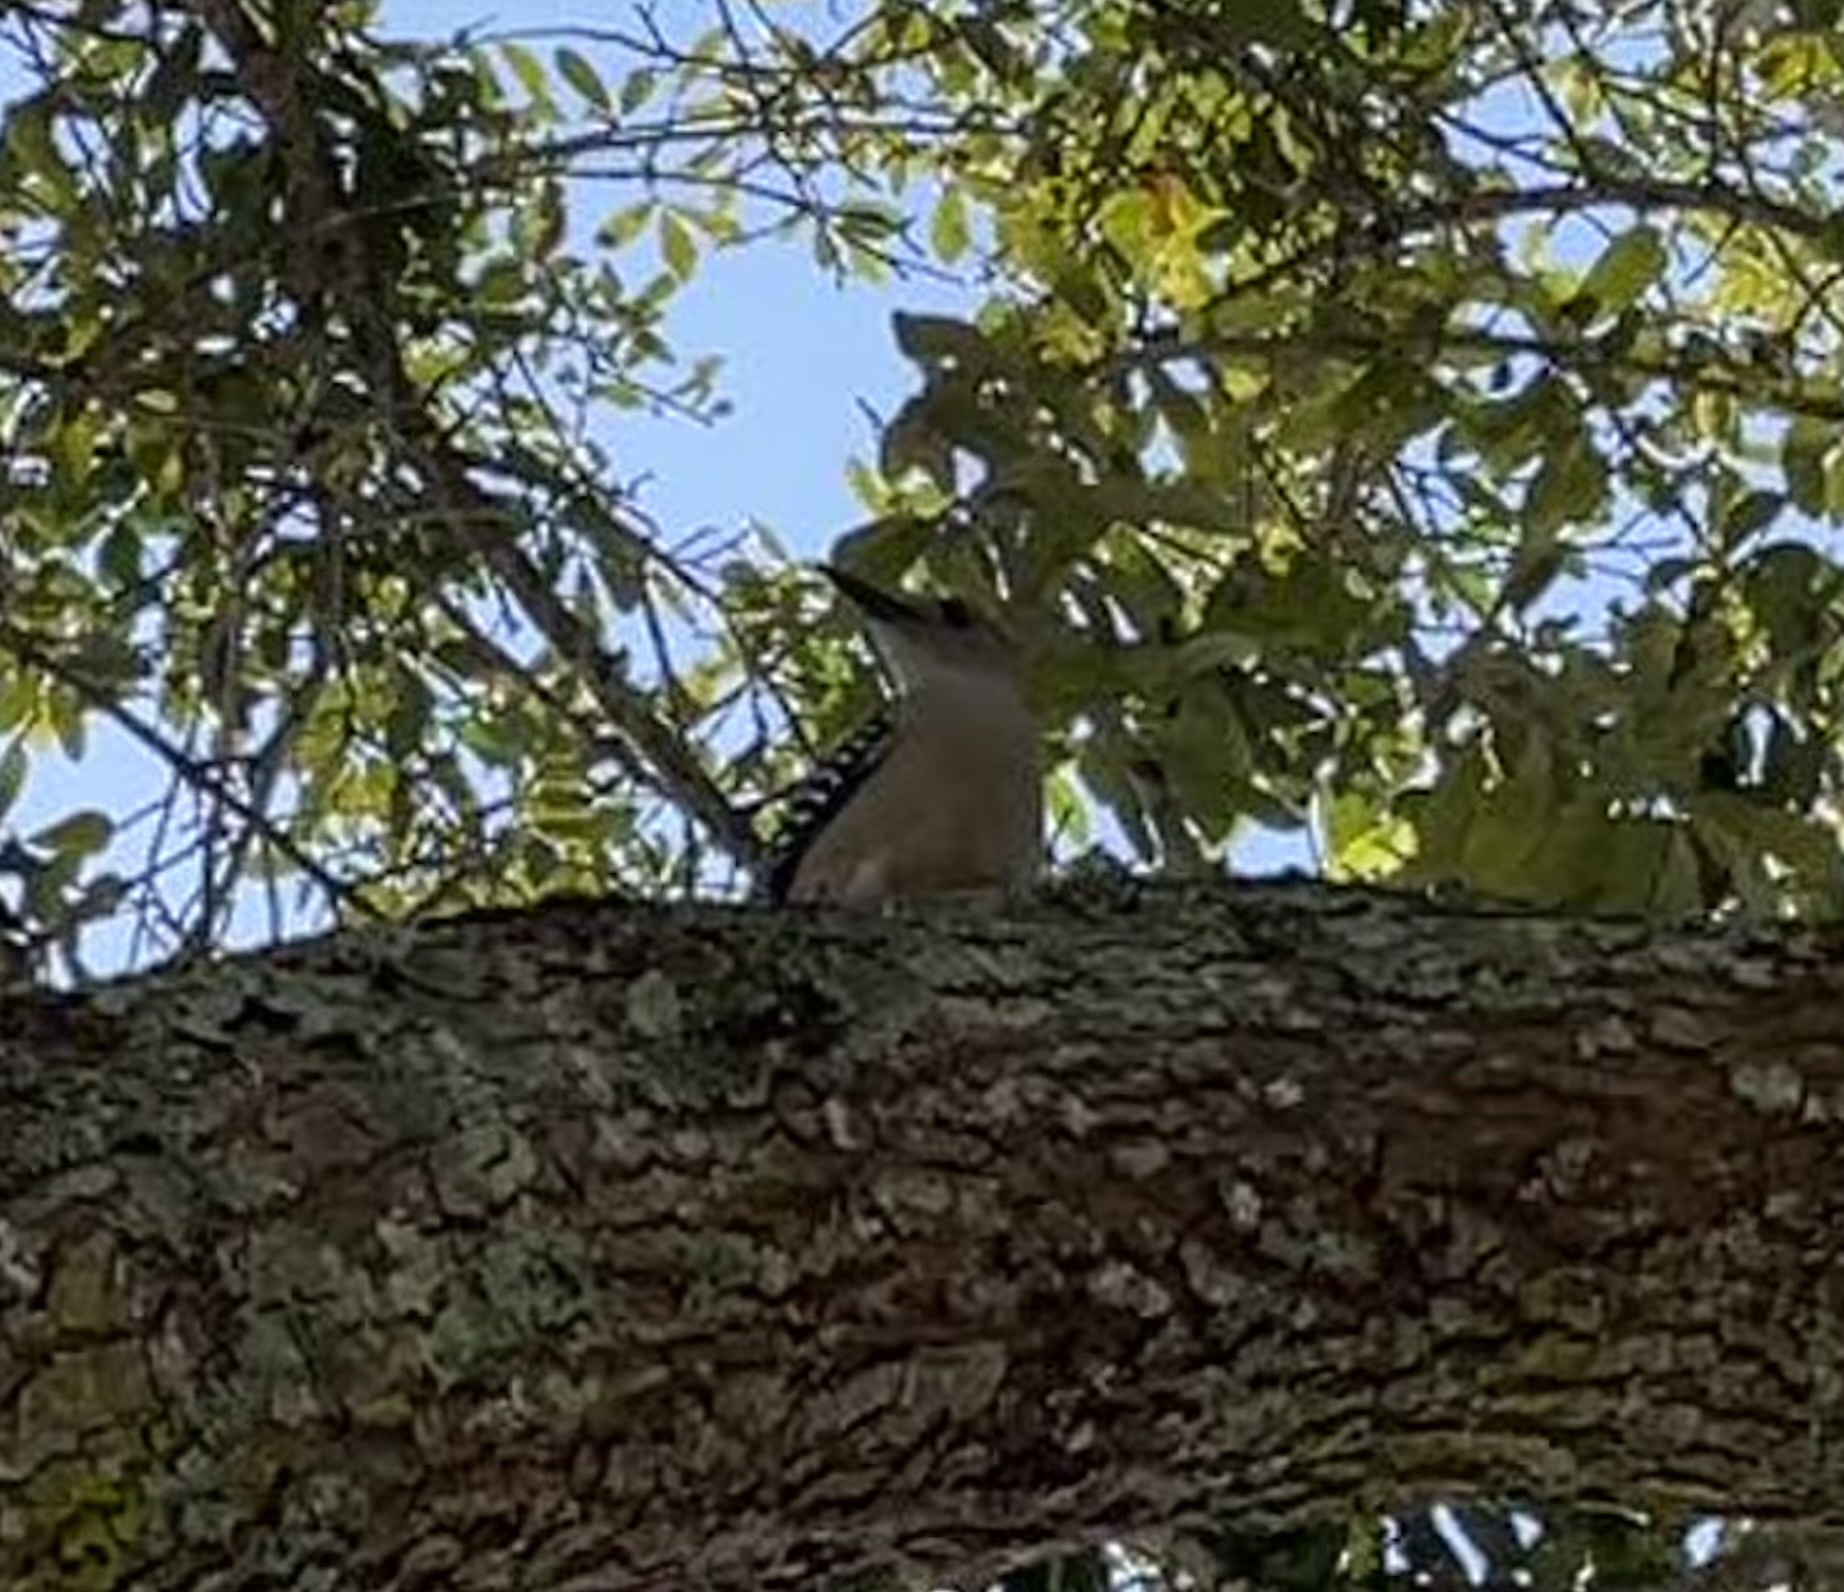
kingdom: Animalia
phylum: Chordata
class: Aves
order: Piciformes
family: Picidae
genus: Melanerpes
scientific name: Melanerpes carolinus
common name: Red-bellied woodpecker
